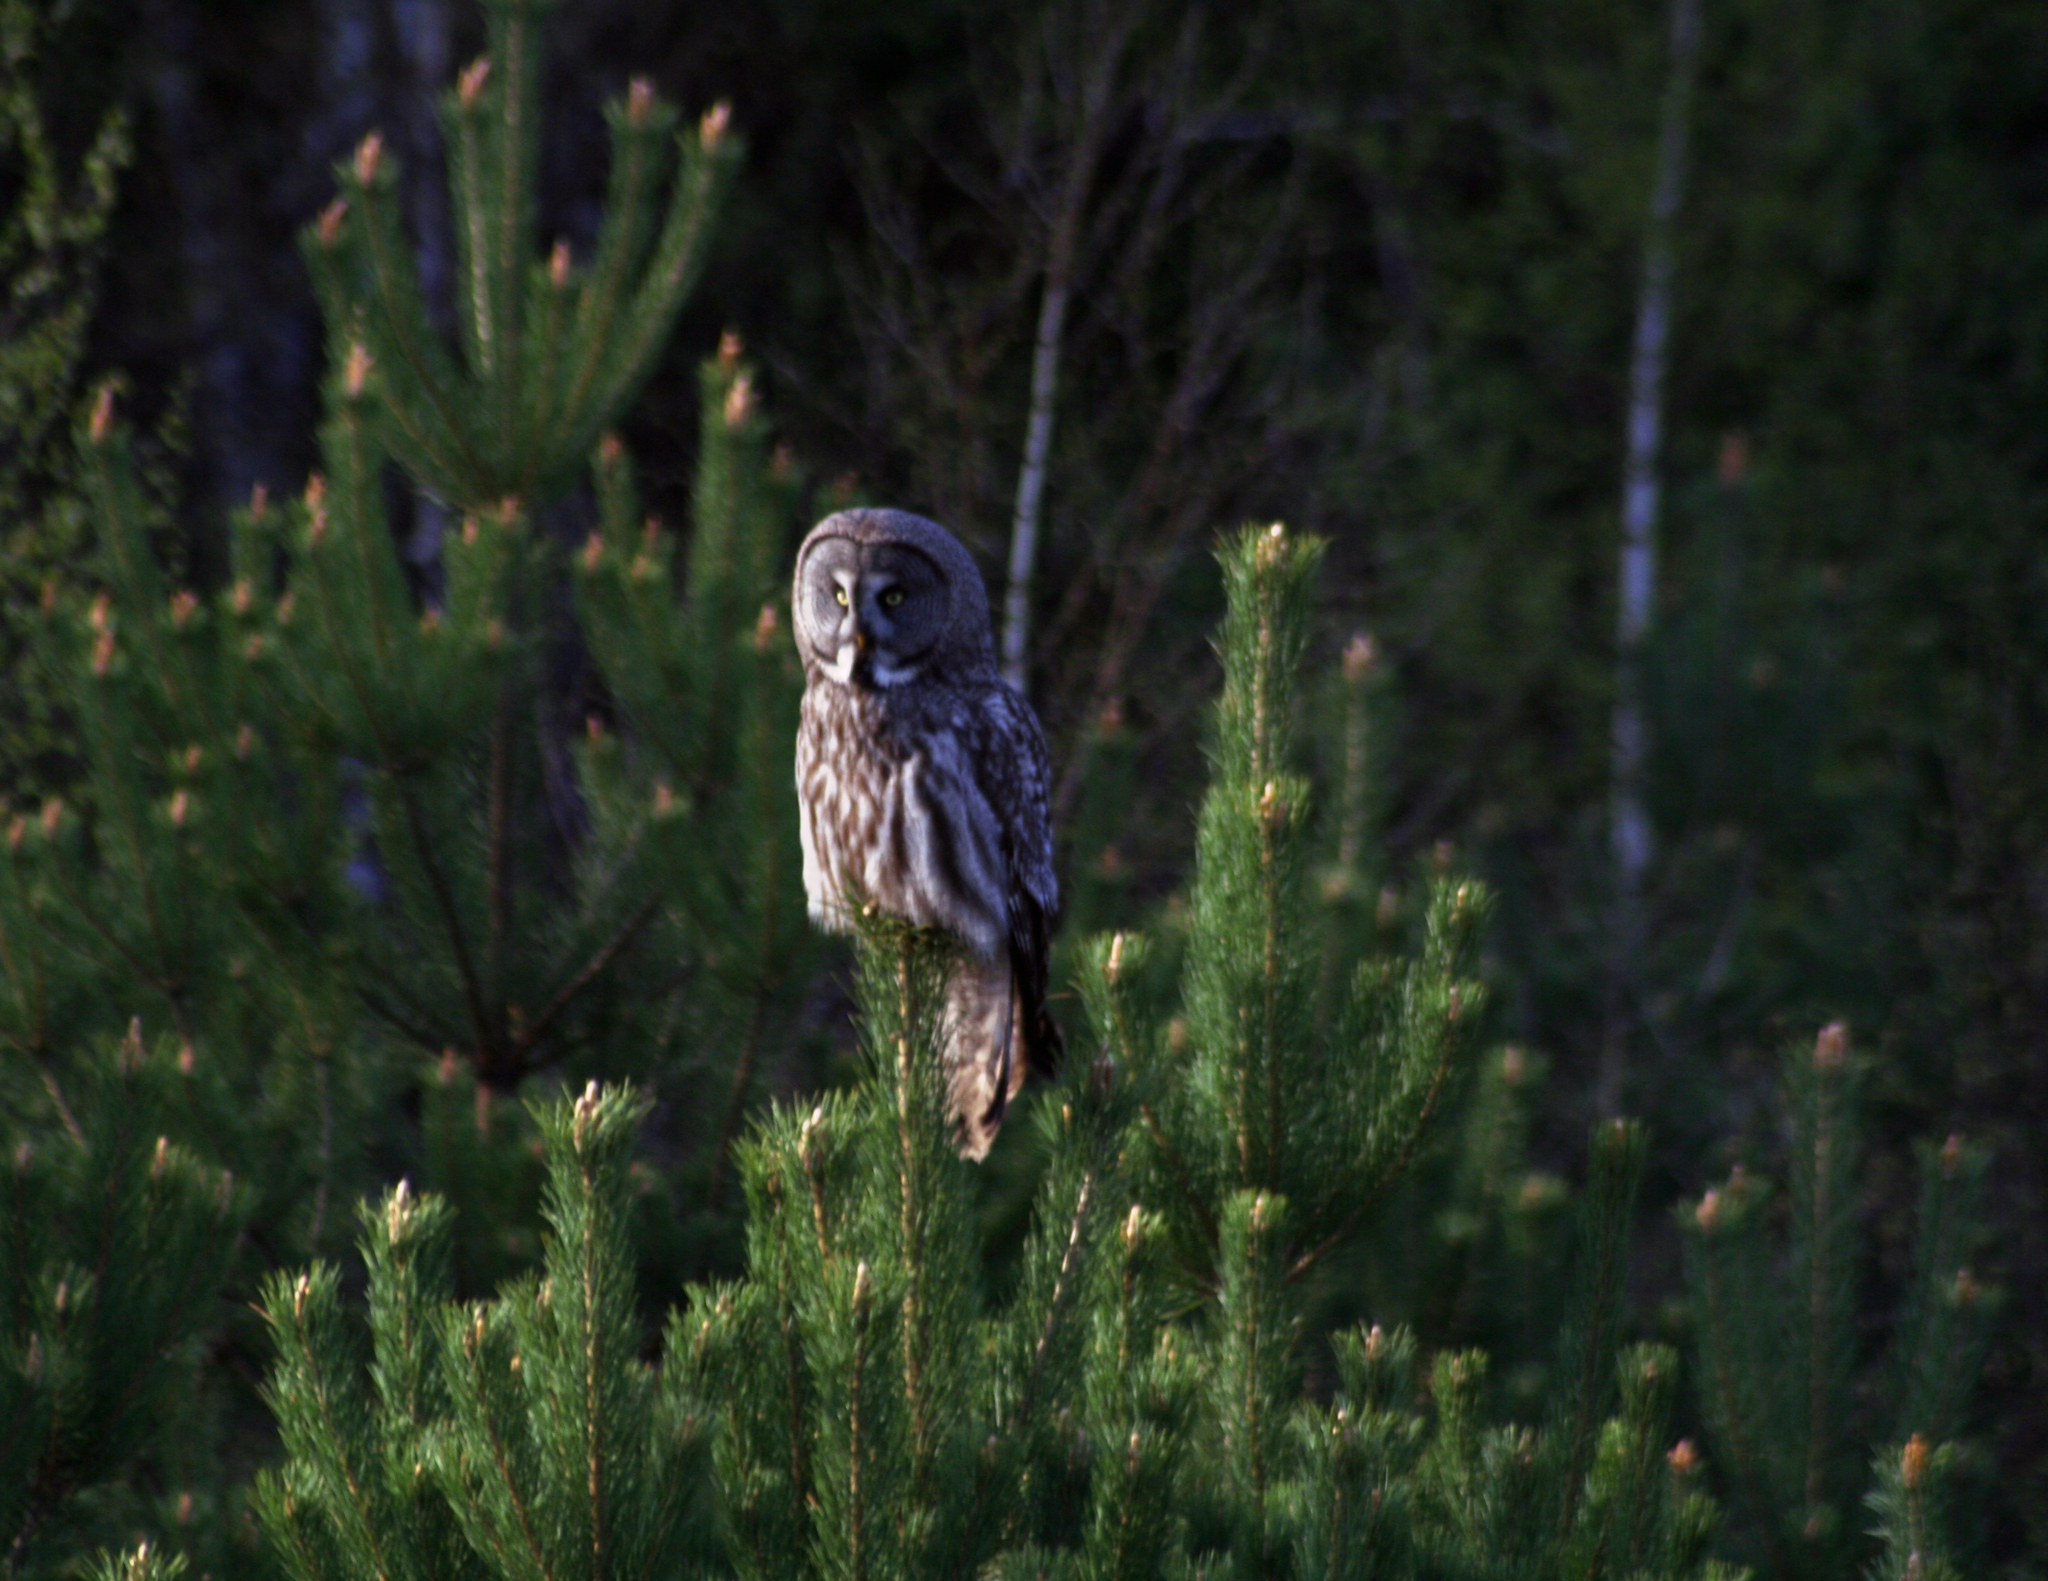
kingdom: Animalia
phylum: Chordata
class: Aves
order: Strigiformes
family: Strigidae
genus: Strix
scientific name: Strix nebulosa
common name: Great grey owl
